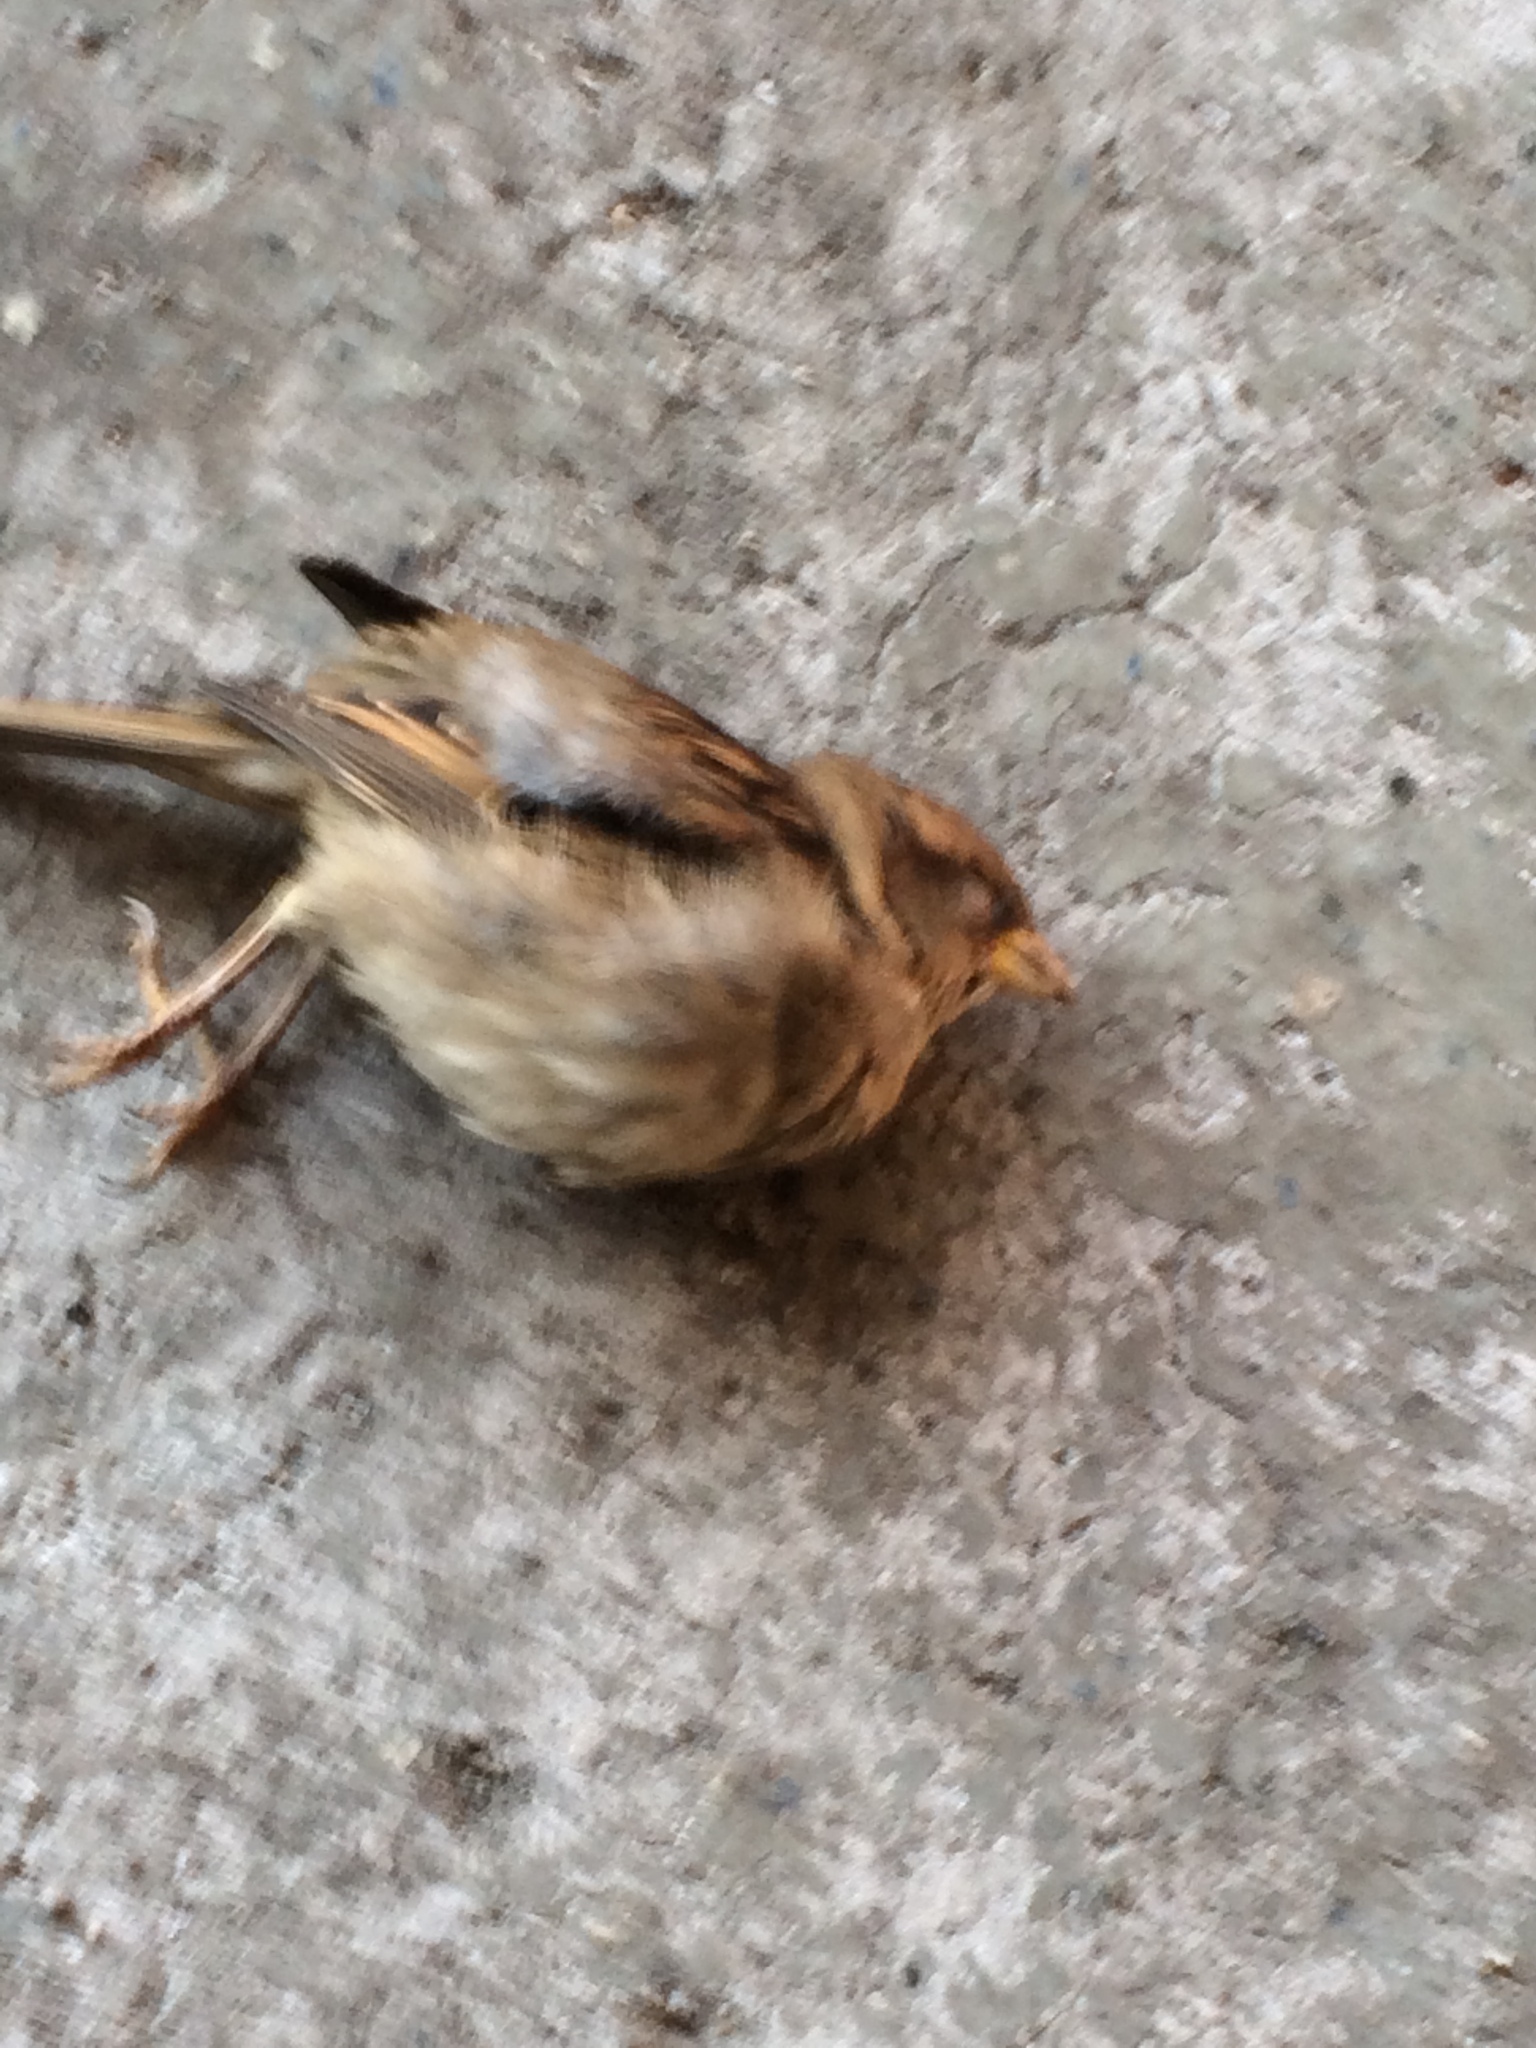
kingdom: Animalia
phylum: Chordata
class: Aves
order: Passeriformes
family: Passeridae
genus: Passer
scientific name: Passer domesticus
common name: House sparrow
